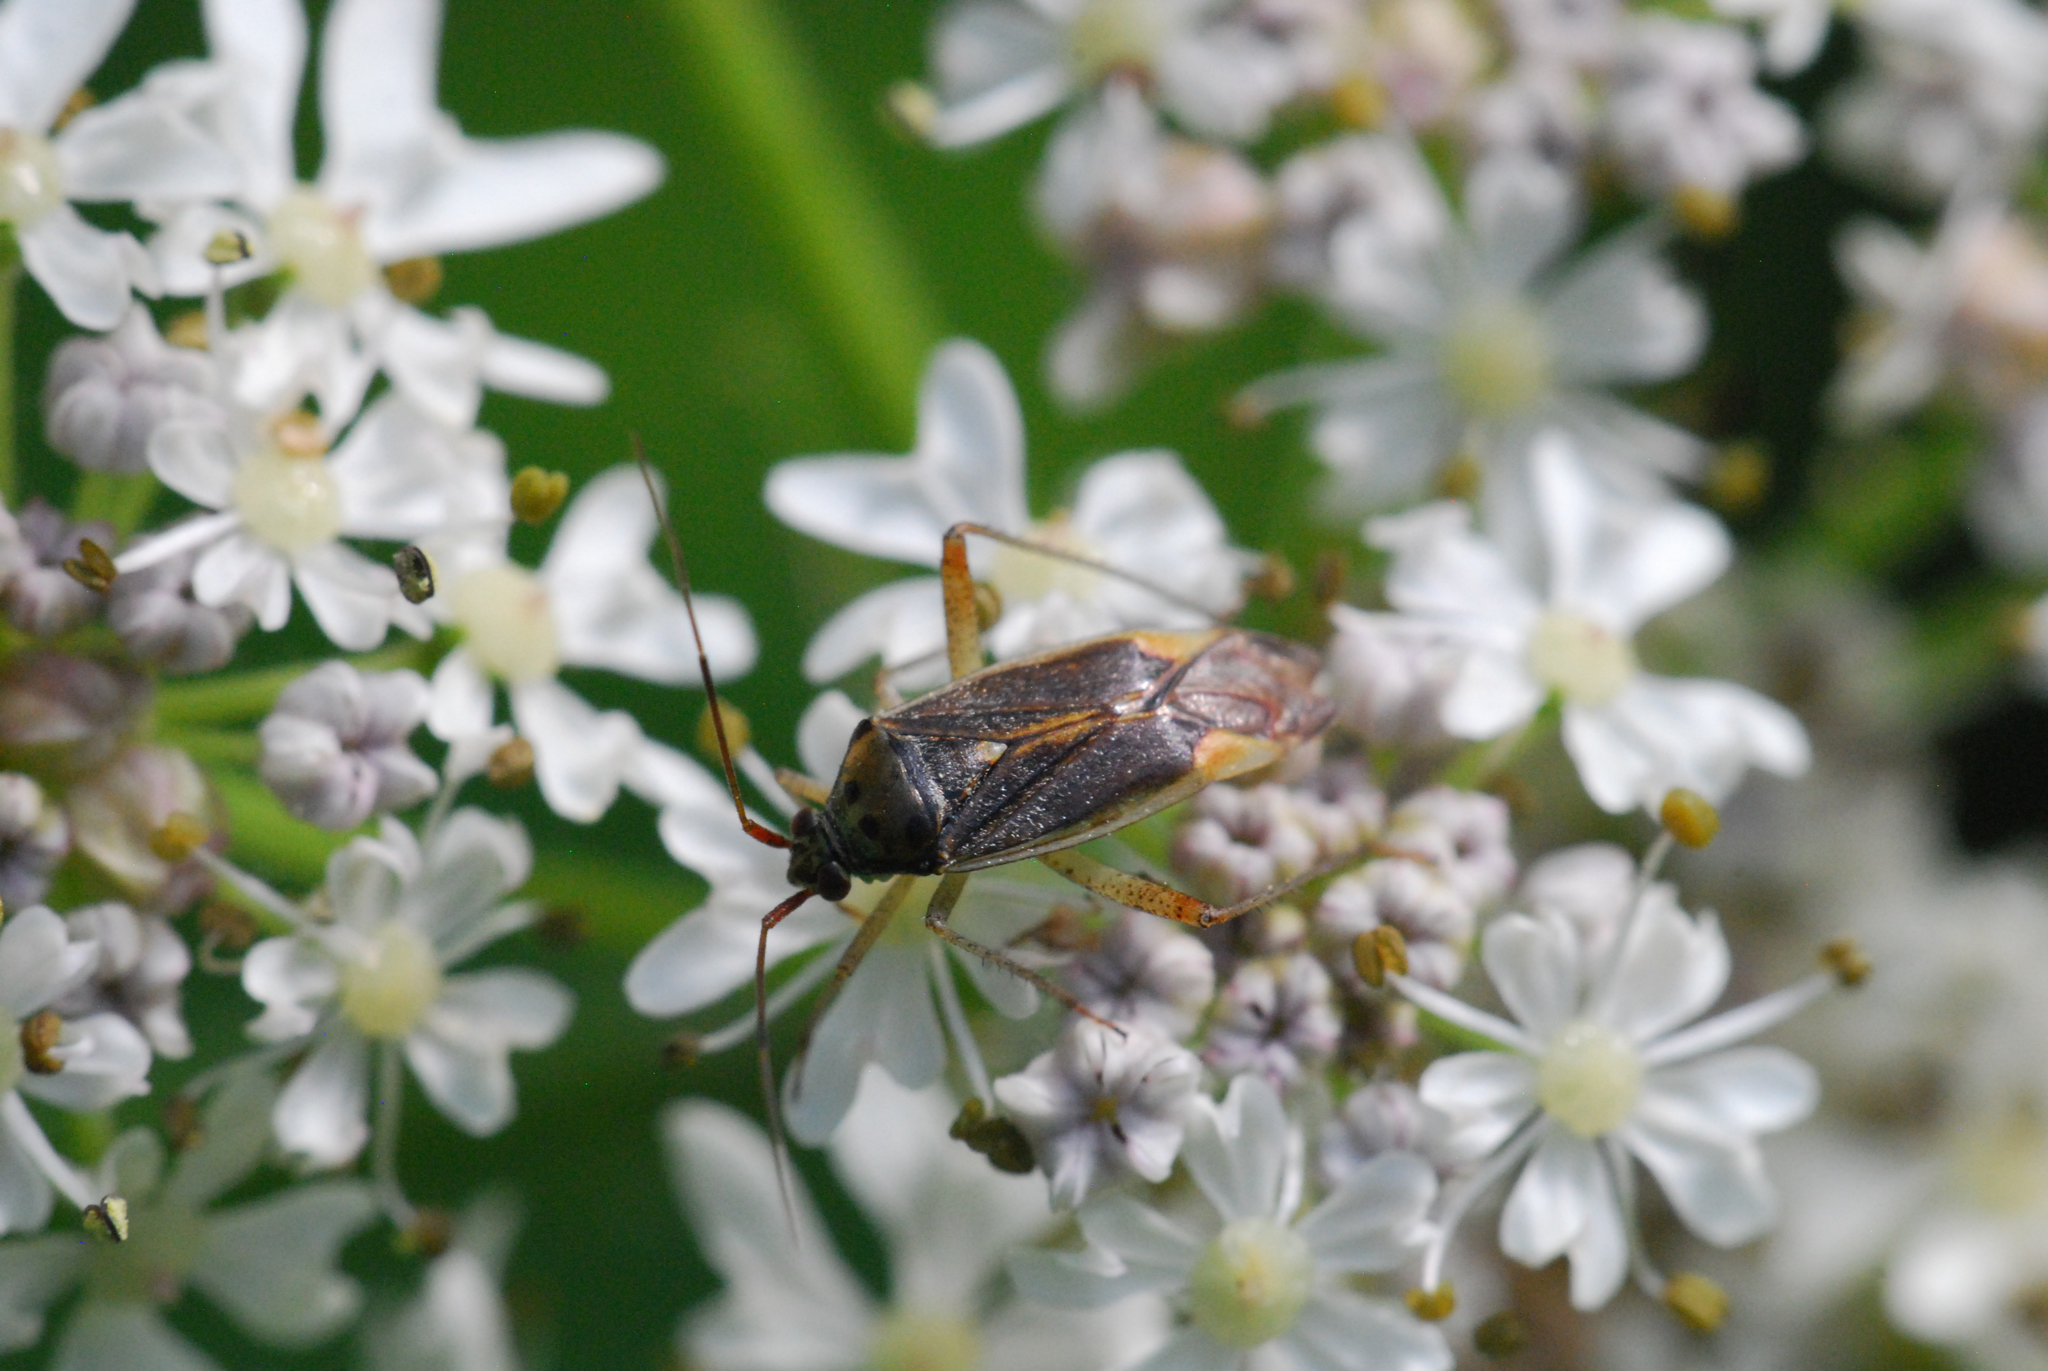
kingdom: Animalia
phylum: Arthropoda
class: Insecta
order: Hemiptera
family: Miridae
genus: Closterotomus
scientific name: Closterotomus trivialis
